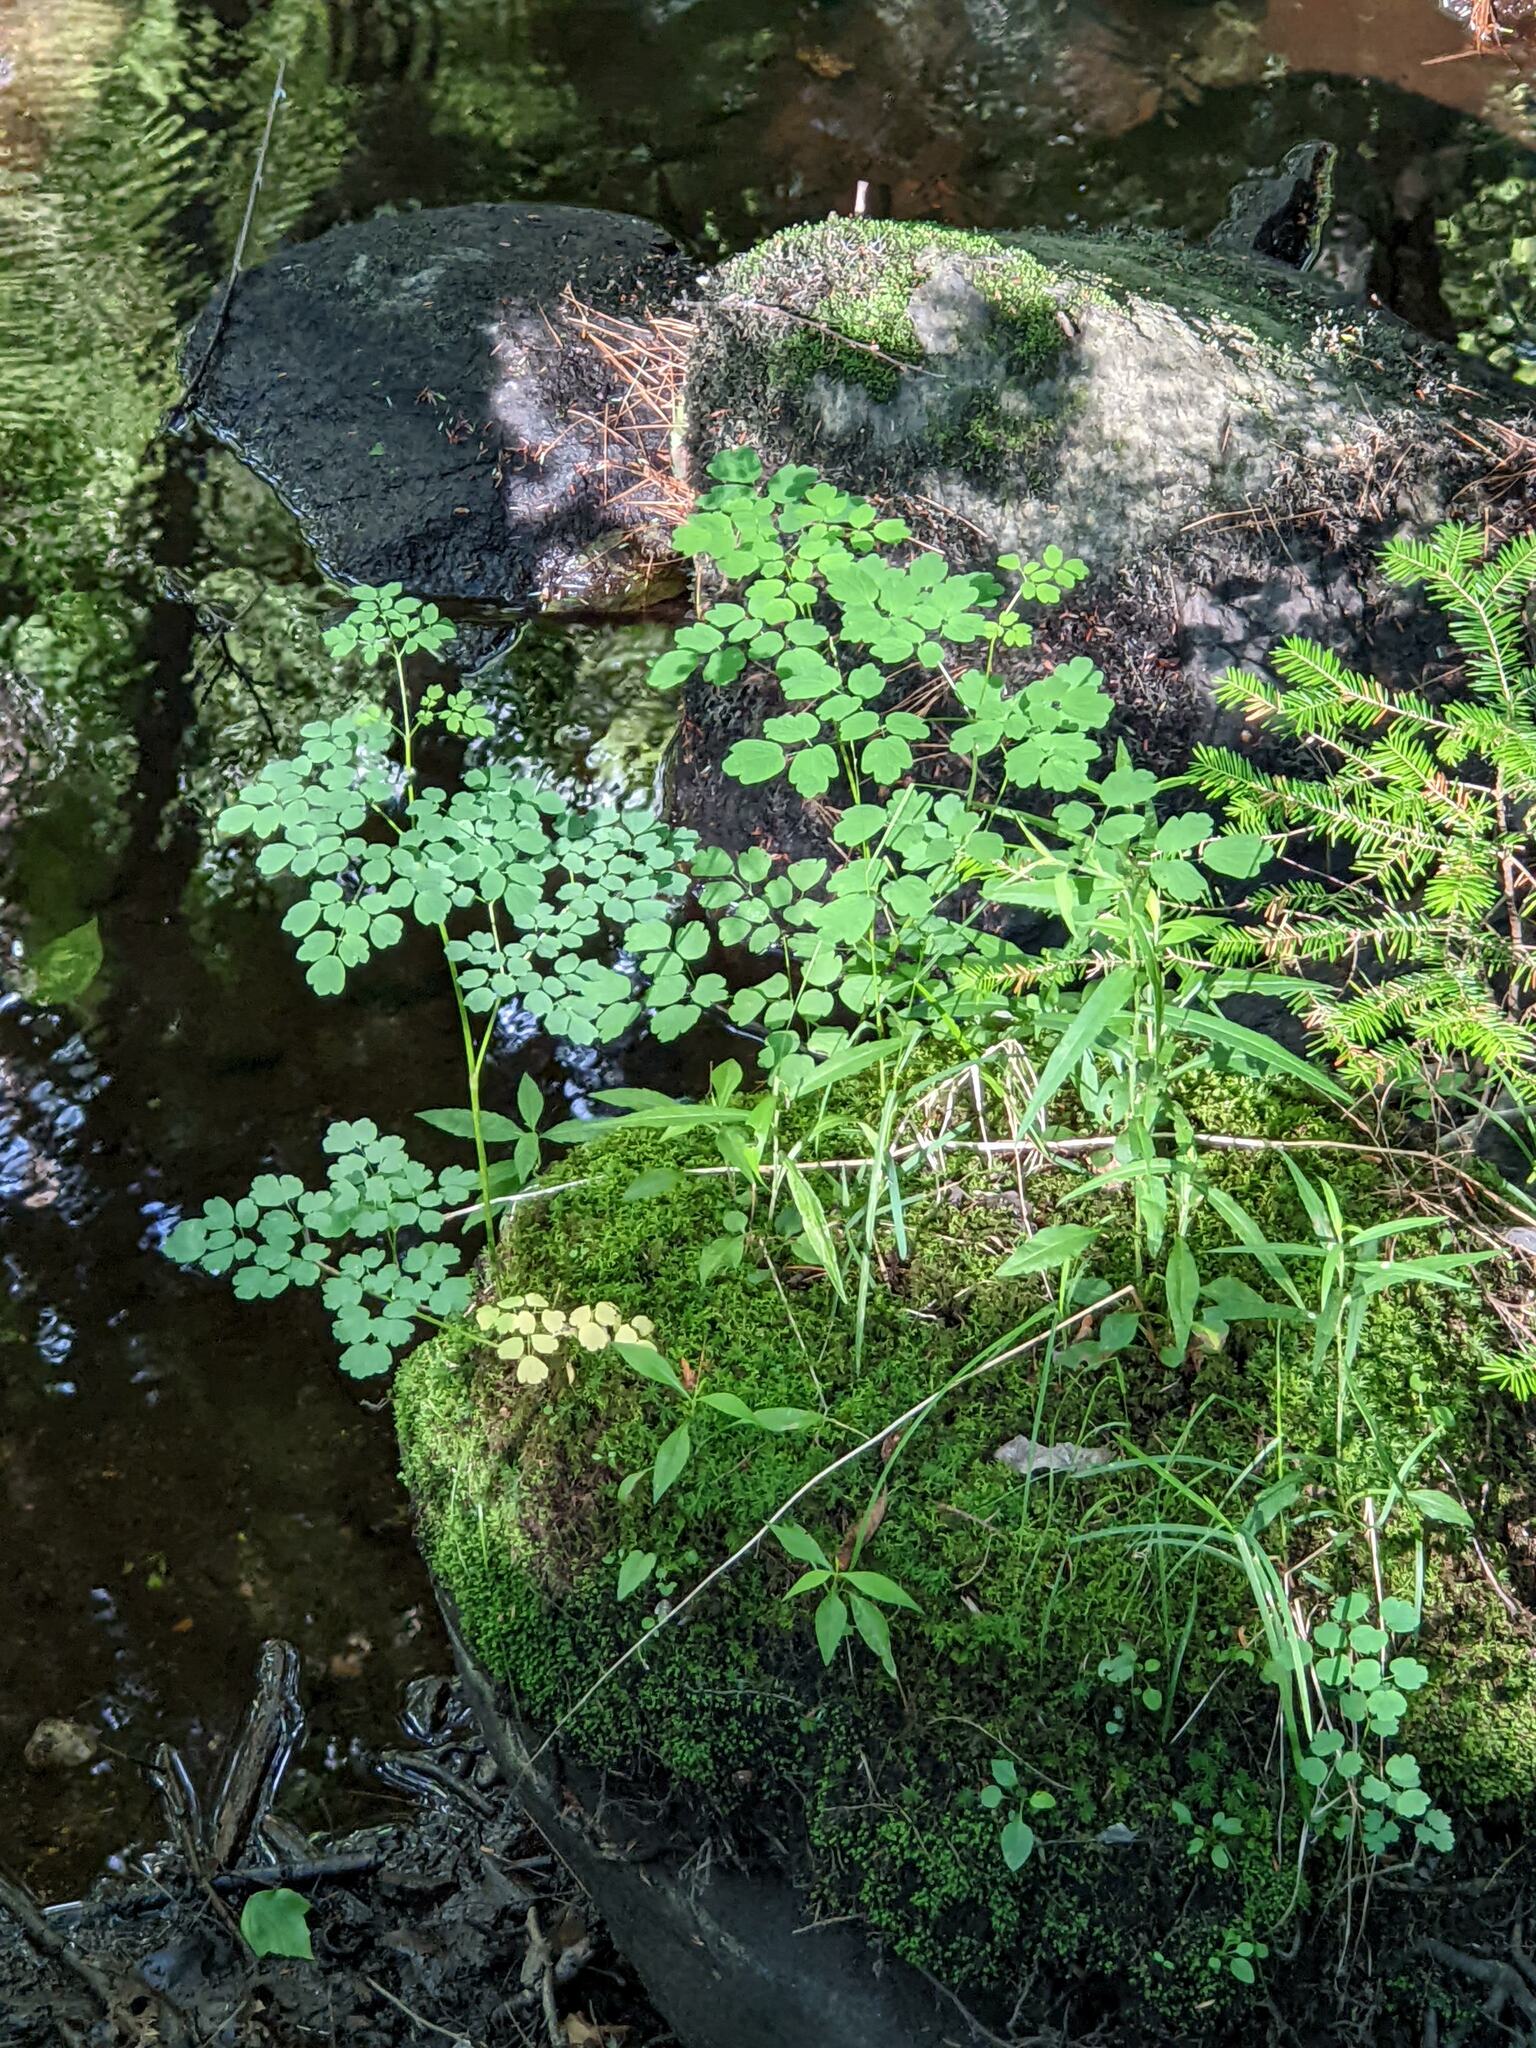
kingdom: Plantae
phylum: Tracheophyta
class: Magnoliopsida
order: Ranunculales
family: Ranunculaceae
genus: Thalictrum
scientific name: Thalictrum pubescens
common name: King-of-the-meadow
